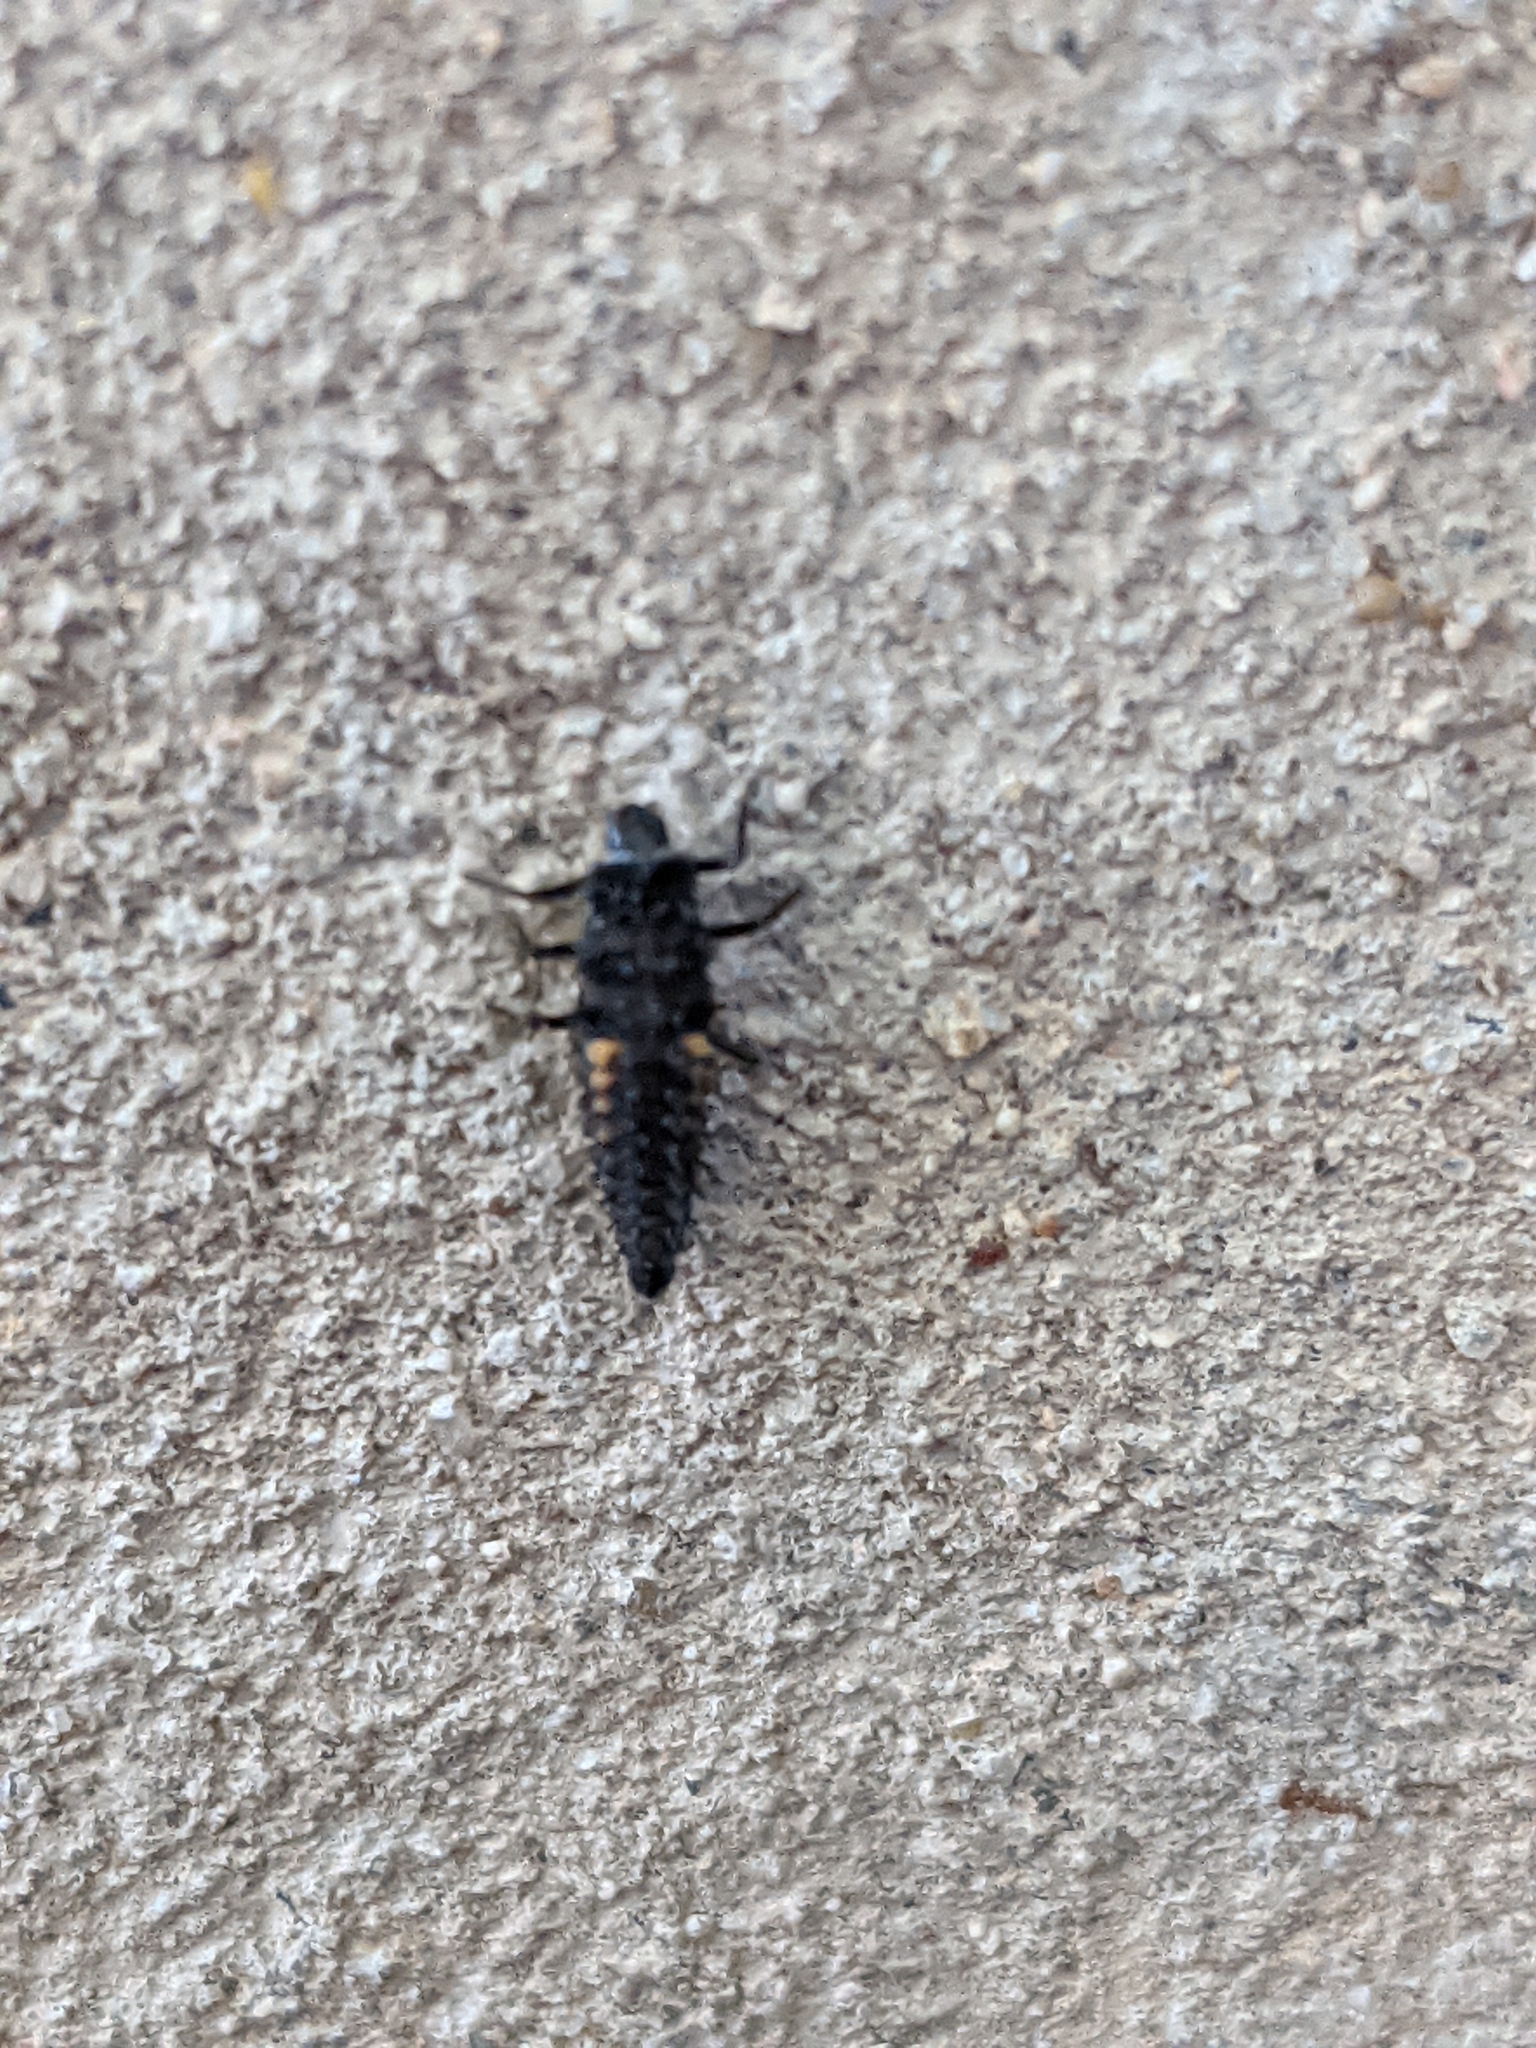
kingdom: Animalia
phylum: Arthropoda
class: Insecta
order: Coleoptera
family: Coccinellidae
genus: Harmonia
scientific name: Harmonia axyridis
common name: Harlequin ladybird
